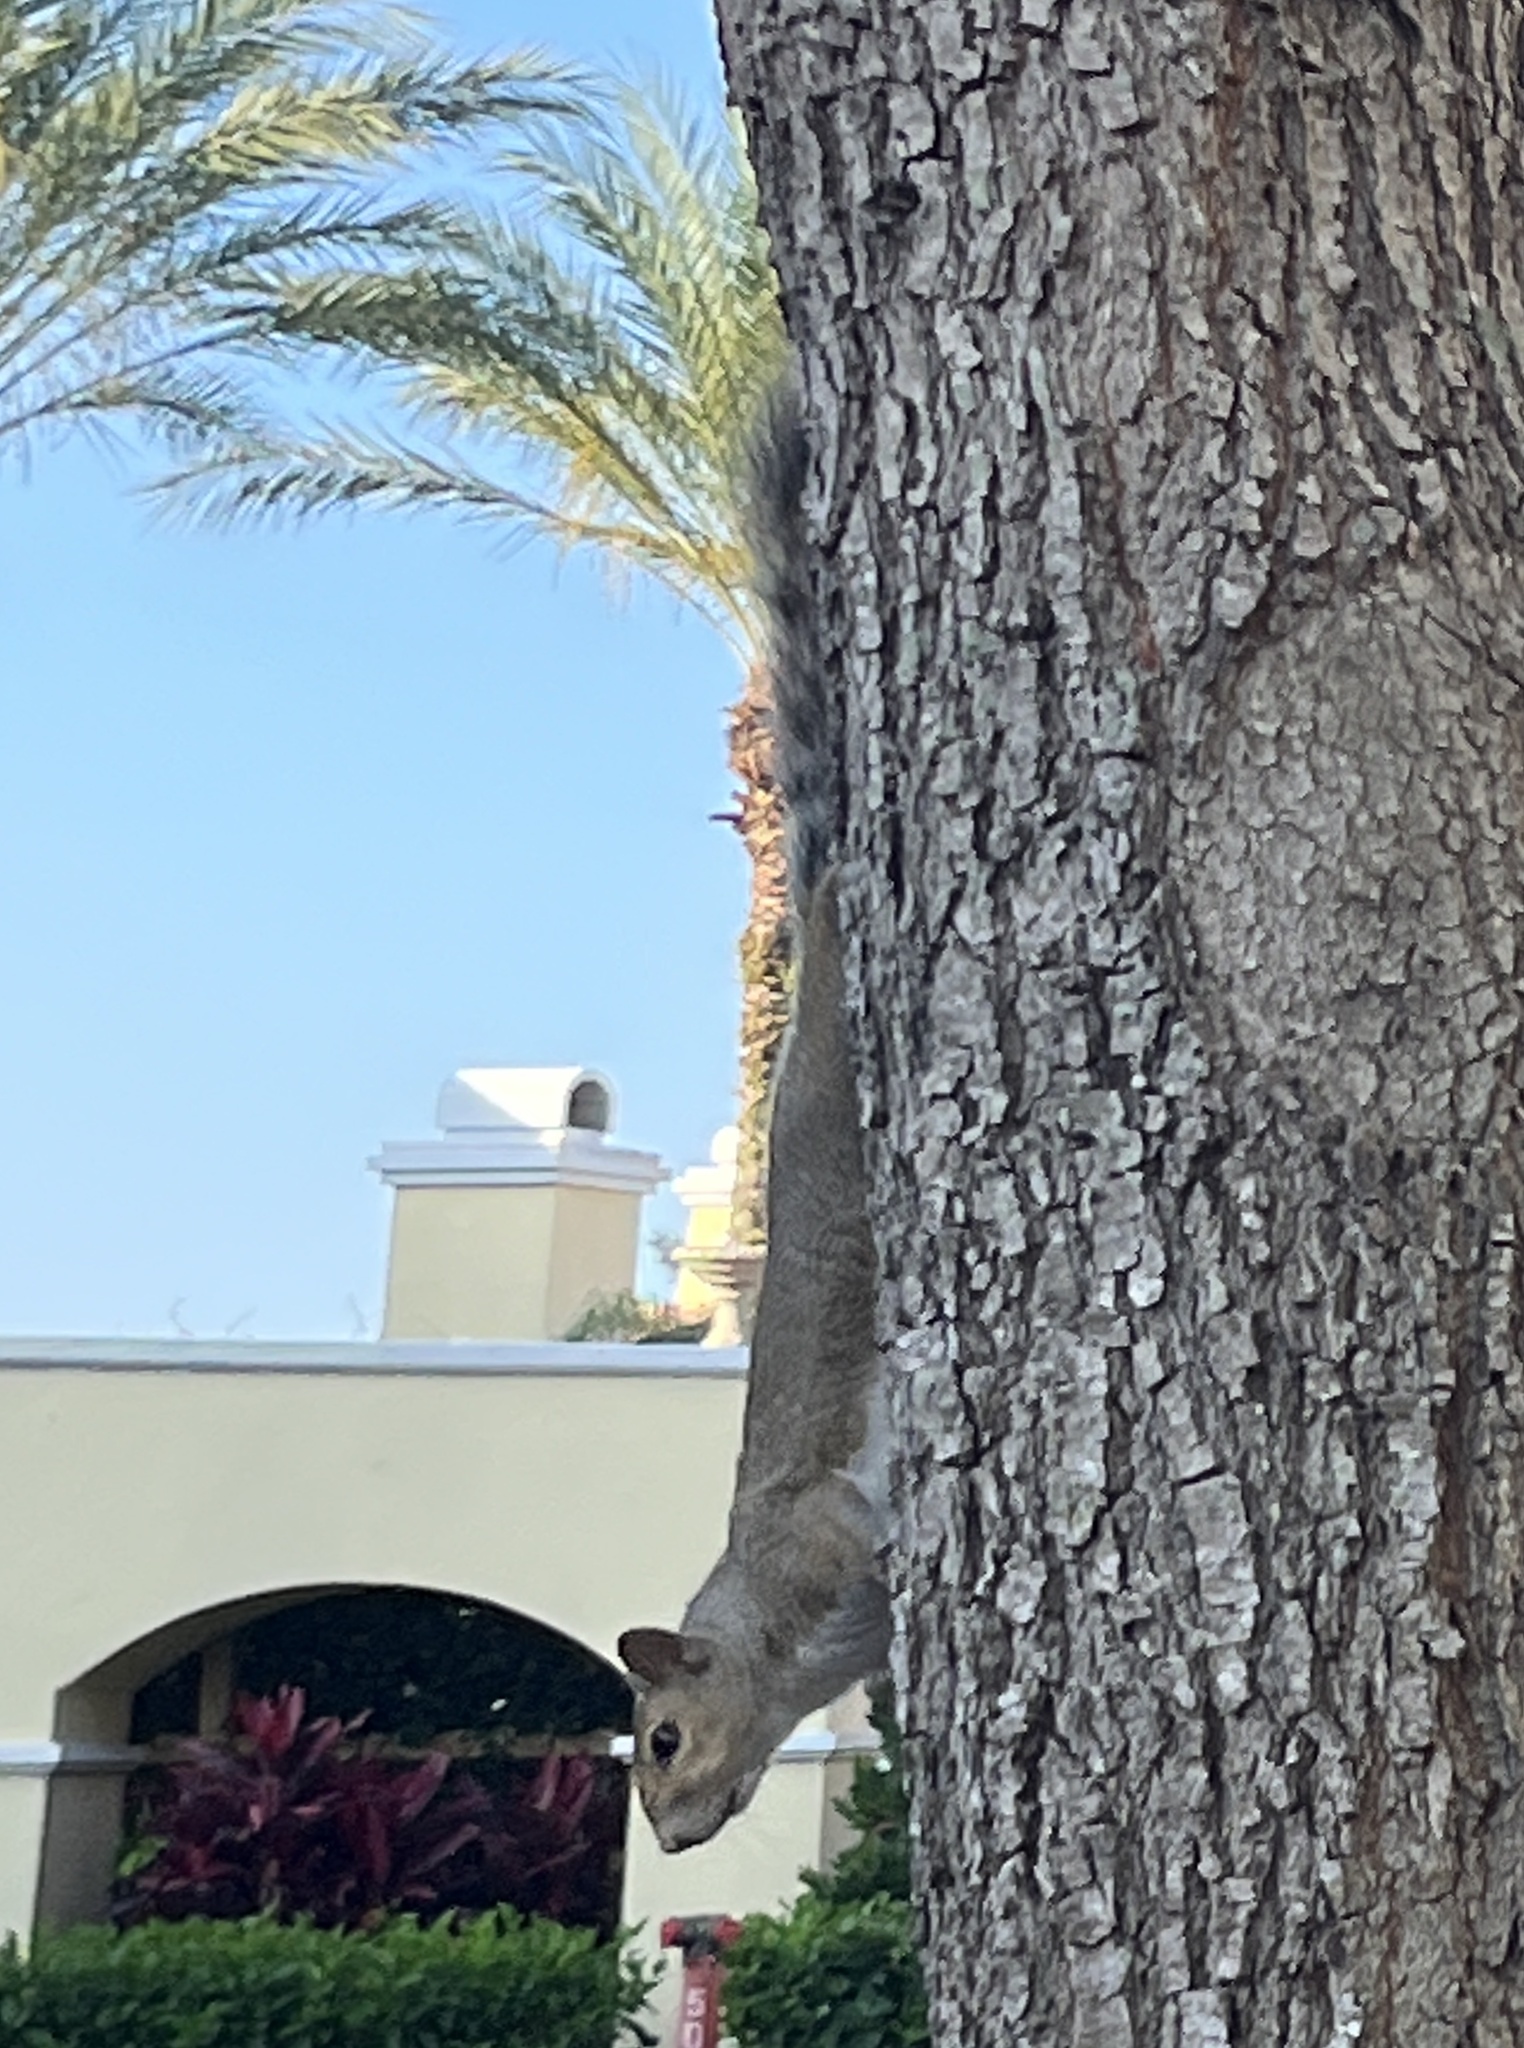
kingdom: Animalia
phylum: Chordata
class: Mammalia
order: Rodentia
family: Sciuridae
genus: Sciurus
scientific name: Sciurus carolinensis
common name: Eastern gray squirrel
